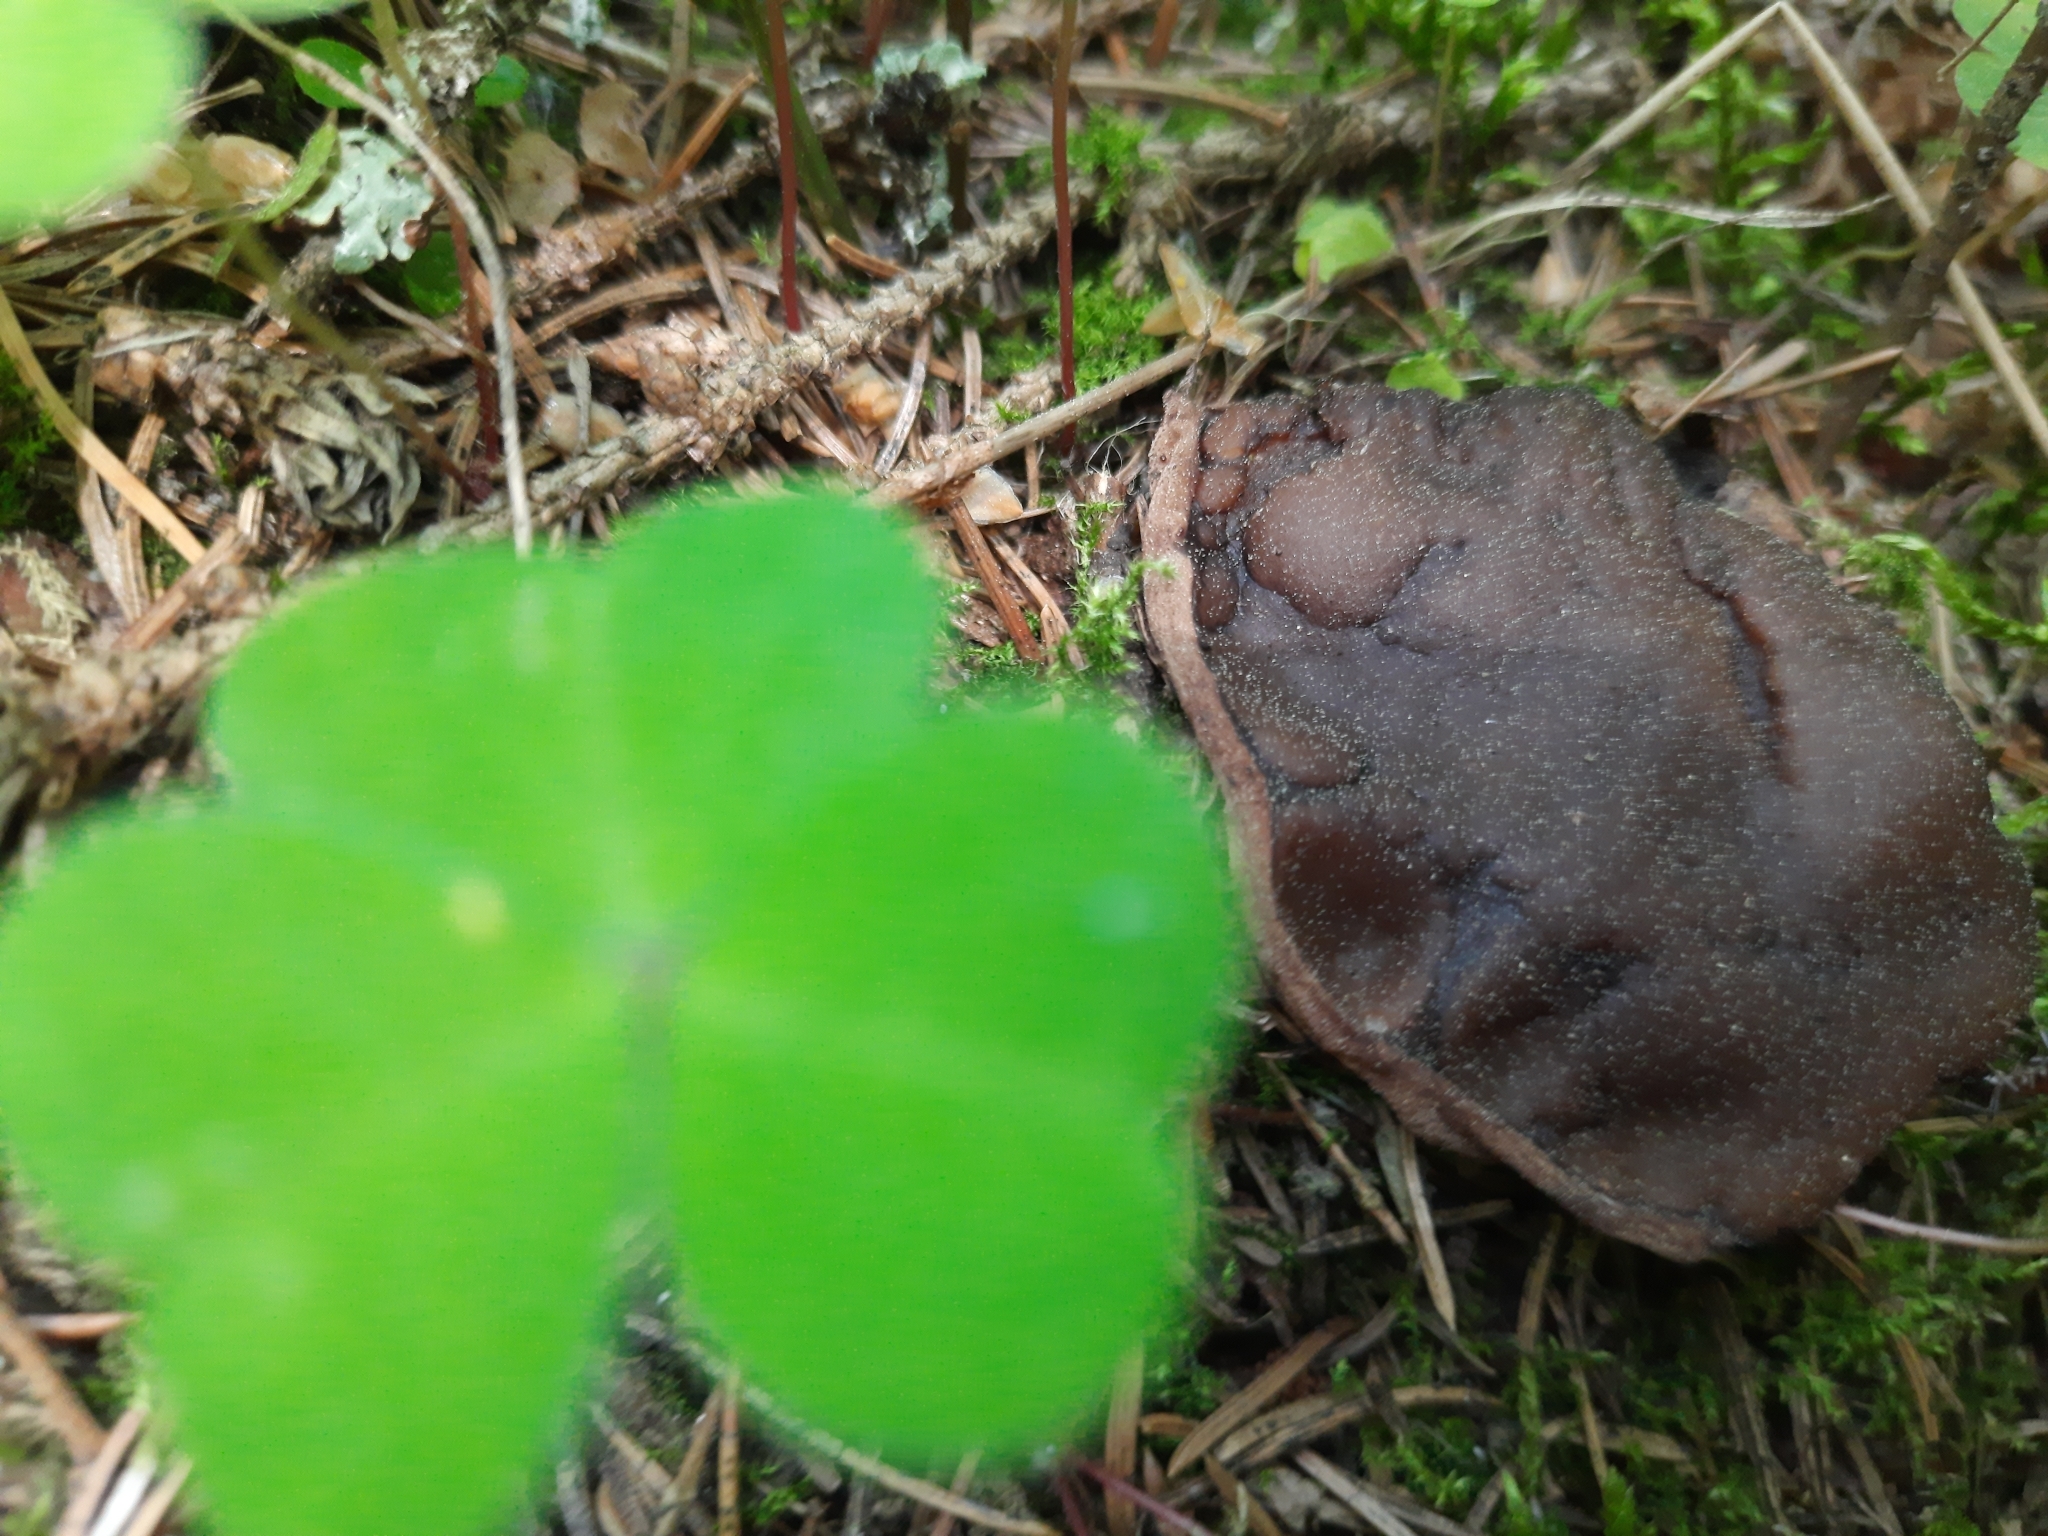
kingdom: Fungi
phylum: Ascomycota
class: Pezizomycetes
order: Pezizales
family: Sarcosomataceae
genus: Sarcosoma
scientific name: Sarcosoma globosum
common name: Charred-pancake cup
